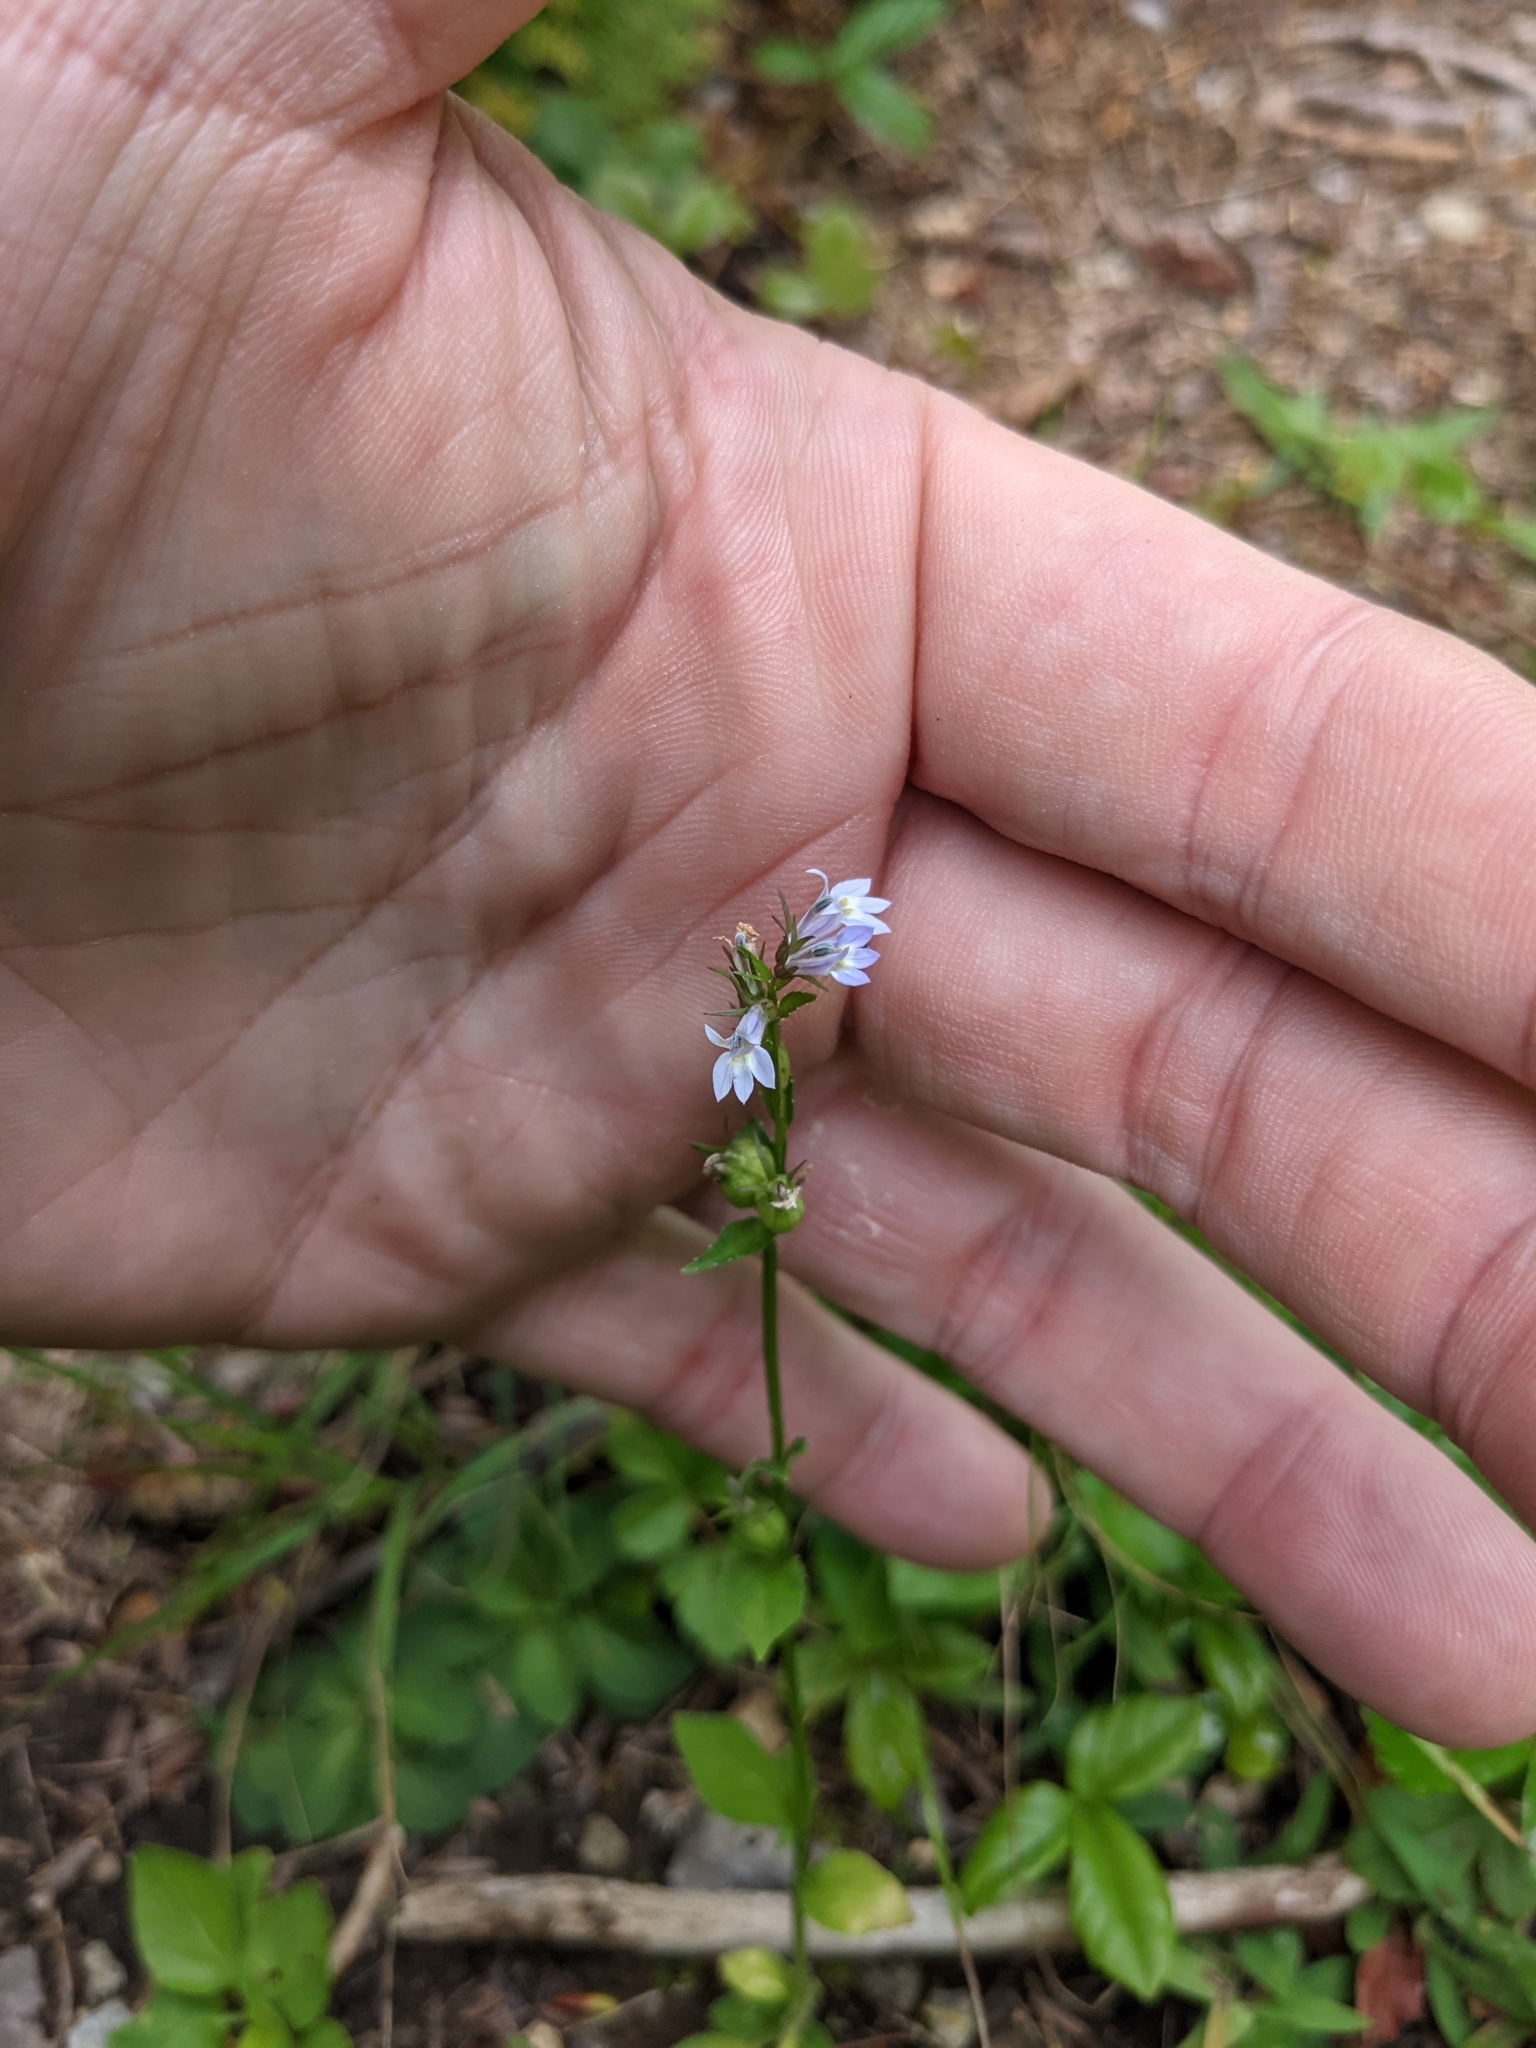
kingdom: Plantae
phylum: Tracheophyta
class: Magnoliopsida
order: Asterales
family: Campanulaceae
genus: Lobelia
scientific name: Lobelia inflata
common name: Indian tobacco
